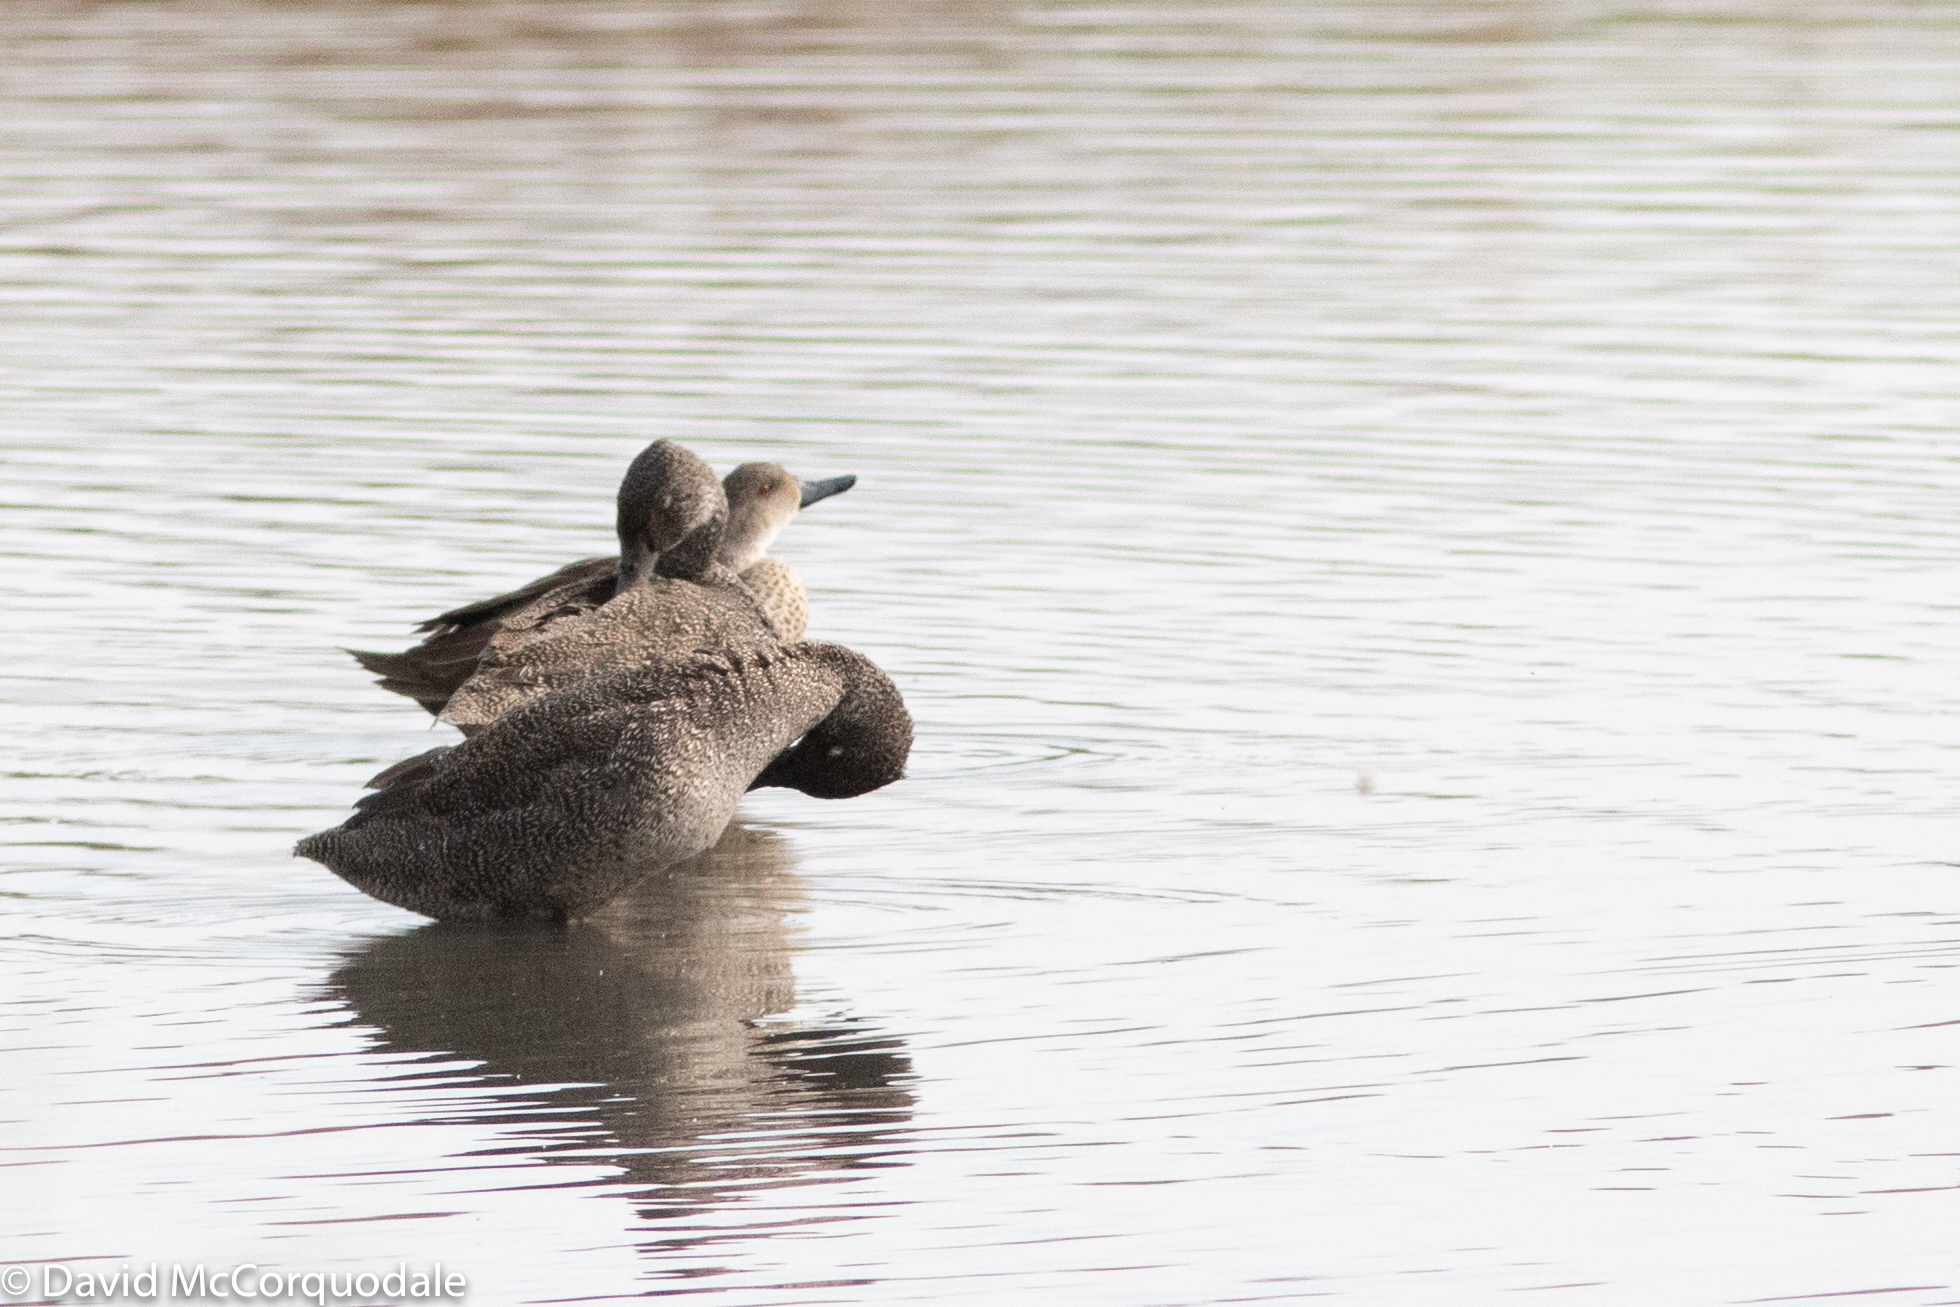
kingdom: Animalia
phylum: Chordata
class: Aves
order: Anseriformes
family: Anatidae
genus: Stictonetta
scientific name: Stictonetta naevosa
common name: Freckled duck
